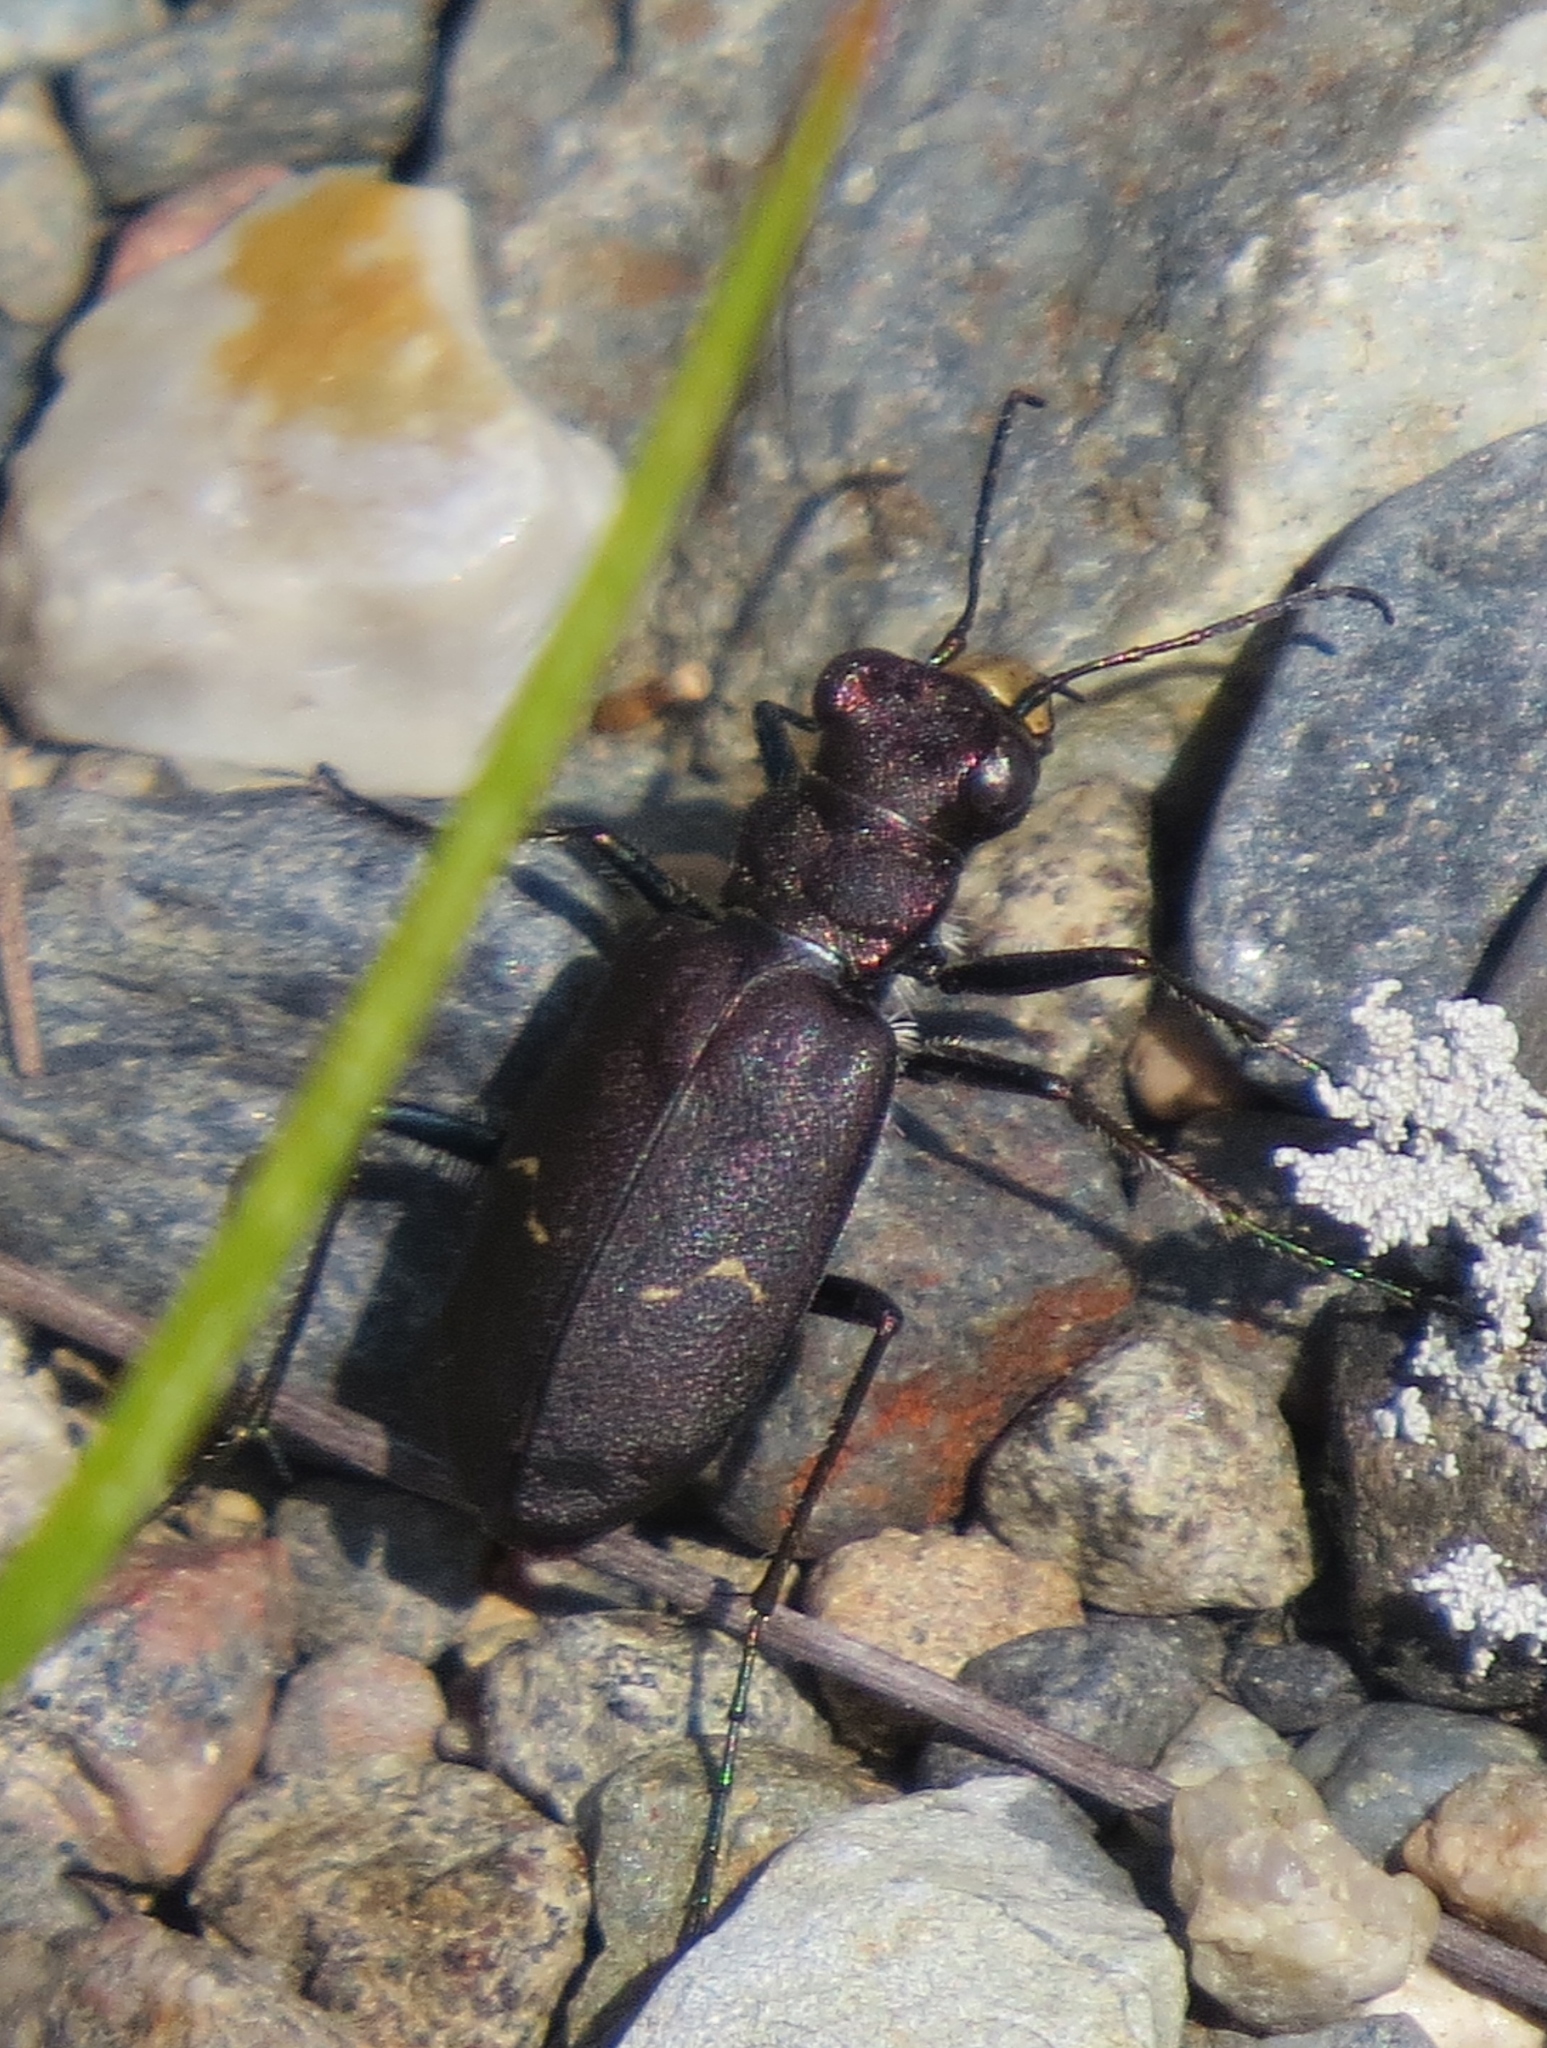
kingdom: Animalia
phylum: Arthropoda
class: Insecta
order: Coleoptera
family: Carabidae
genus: Cicindela
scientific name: Cicindela longilabris
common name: Boreal long-lipped tiger beetle
